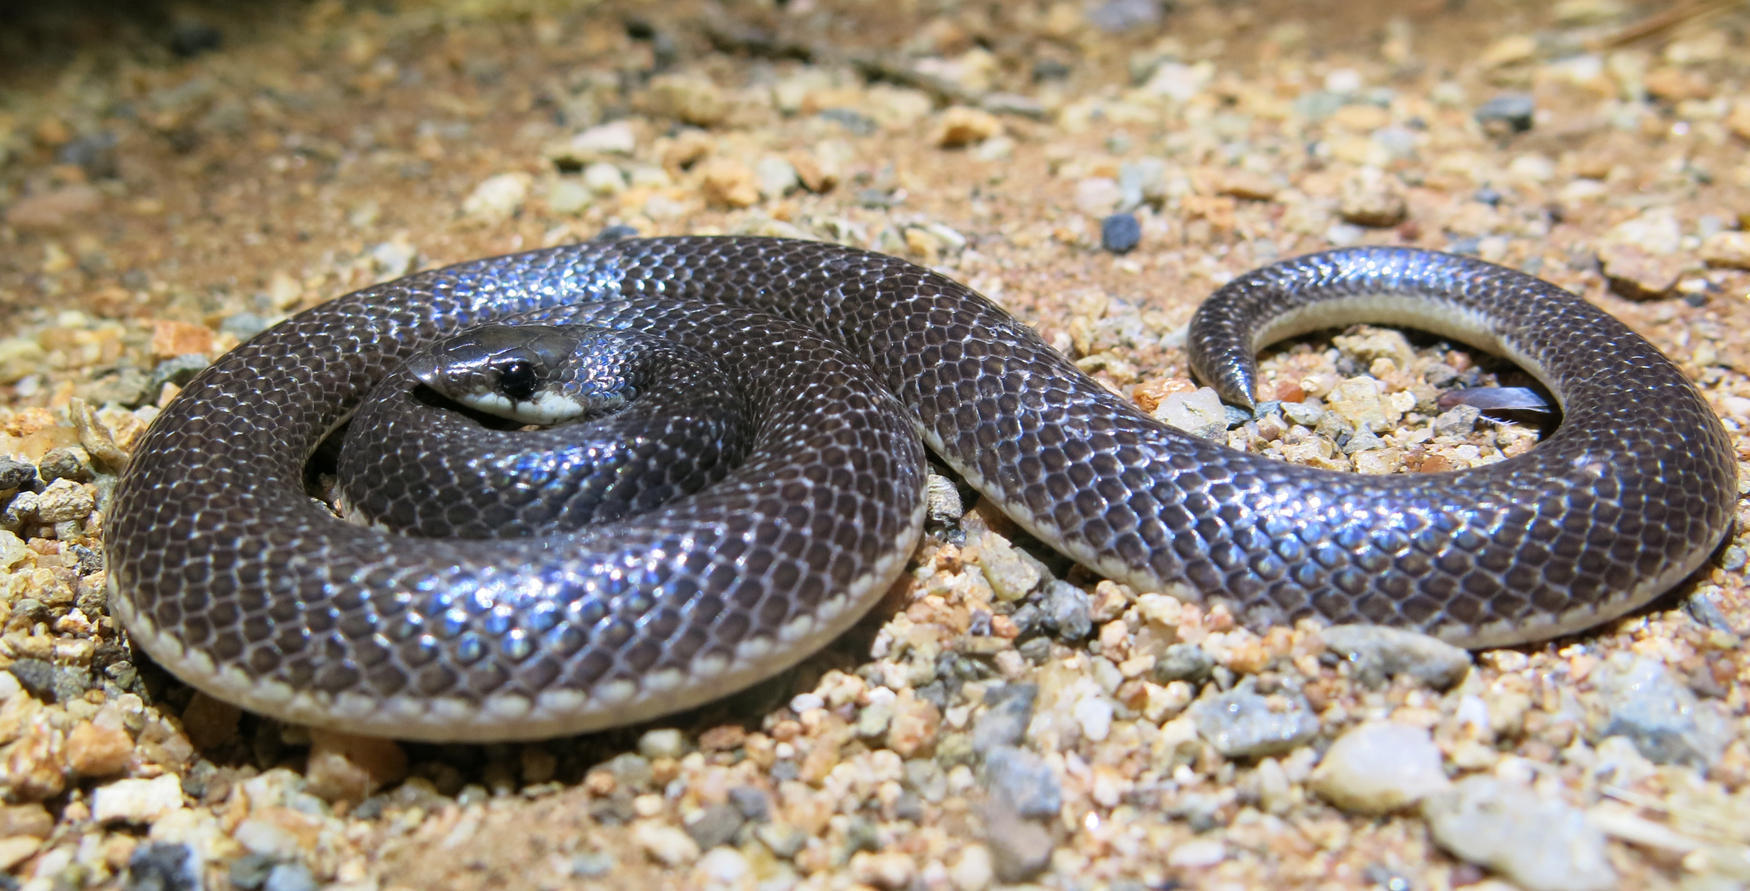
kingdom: Animalia
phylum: Chordata
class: Squamata
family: Prosymnidae
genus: Prosymna
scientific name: Prosymna lineata
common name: Lined shovel-snout
